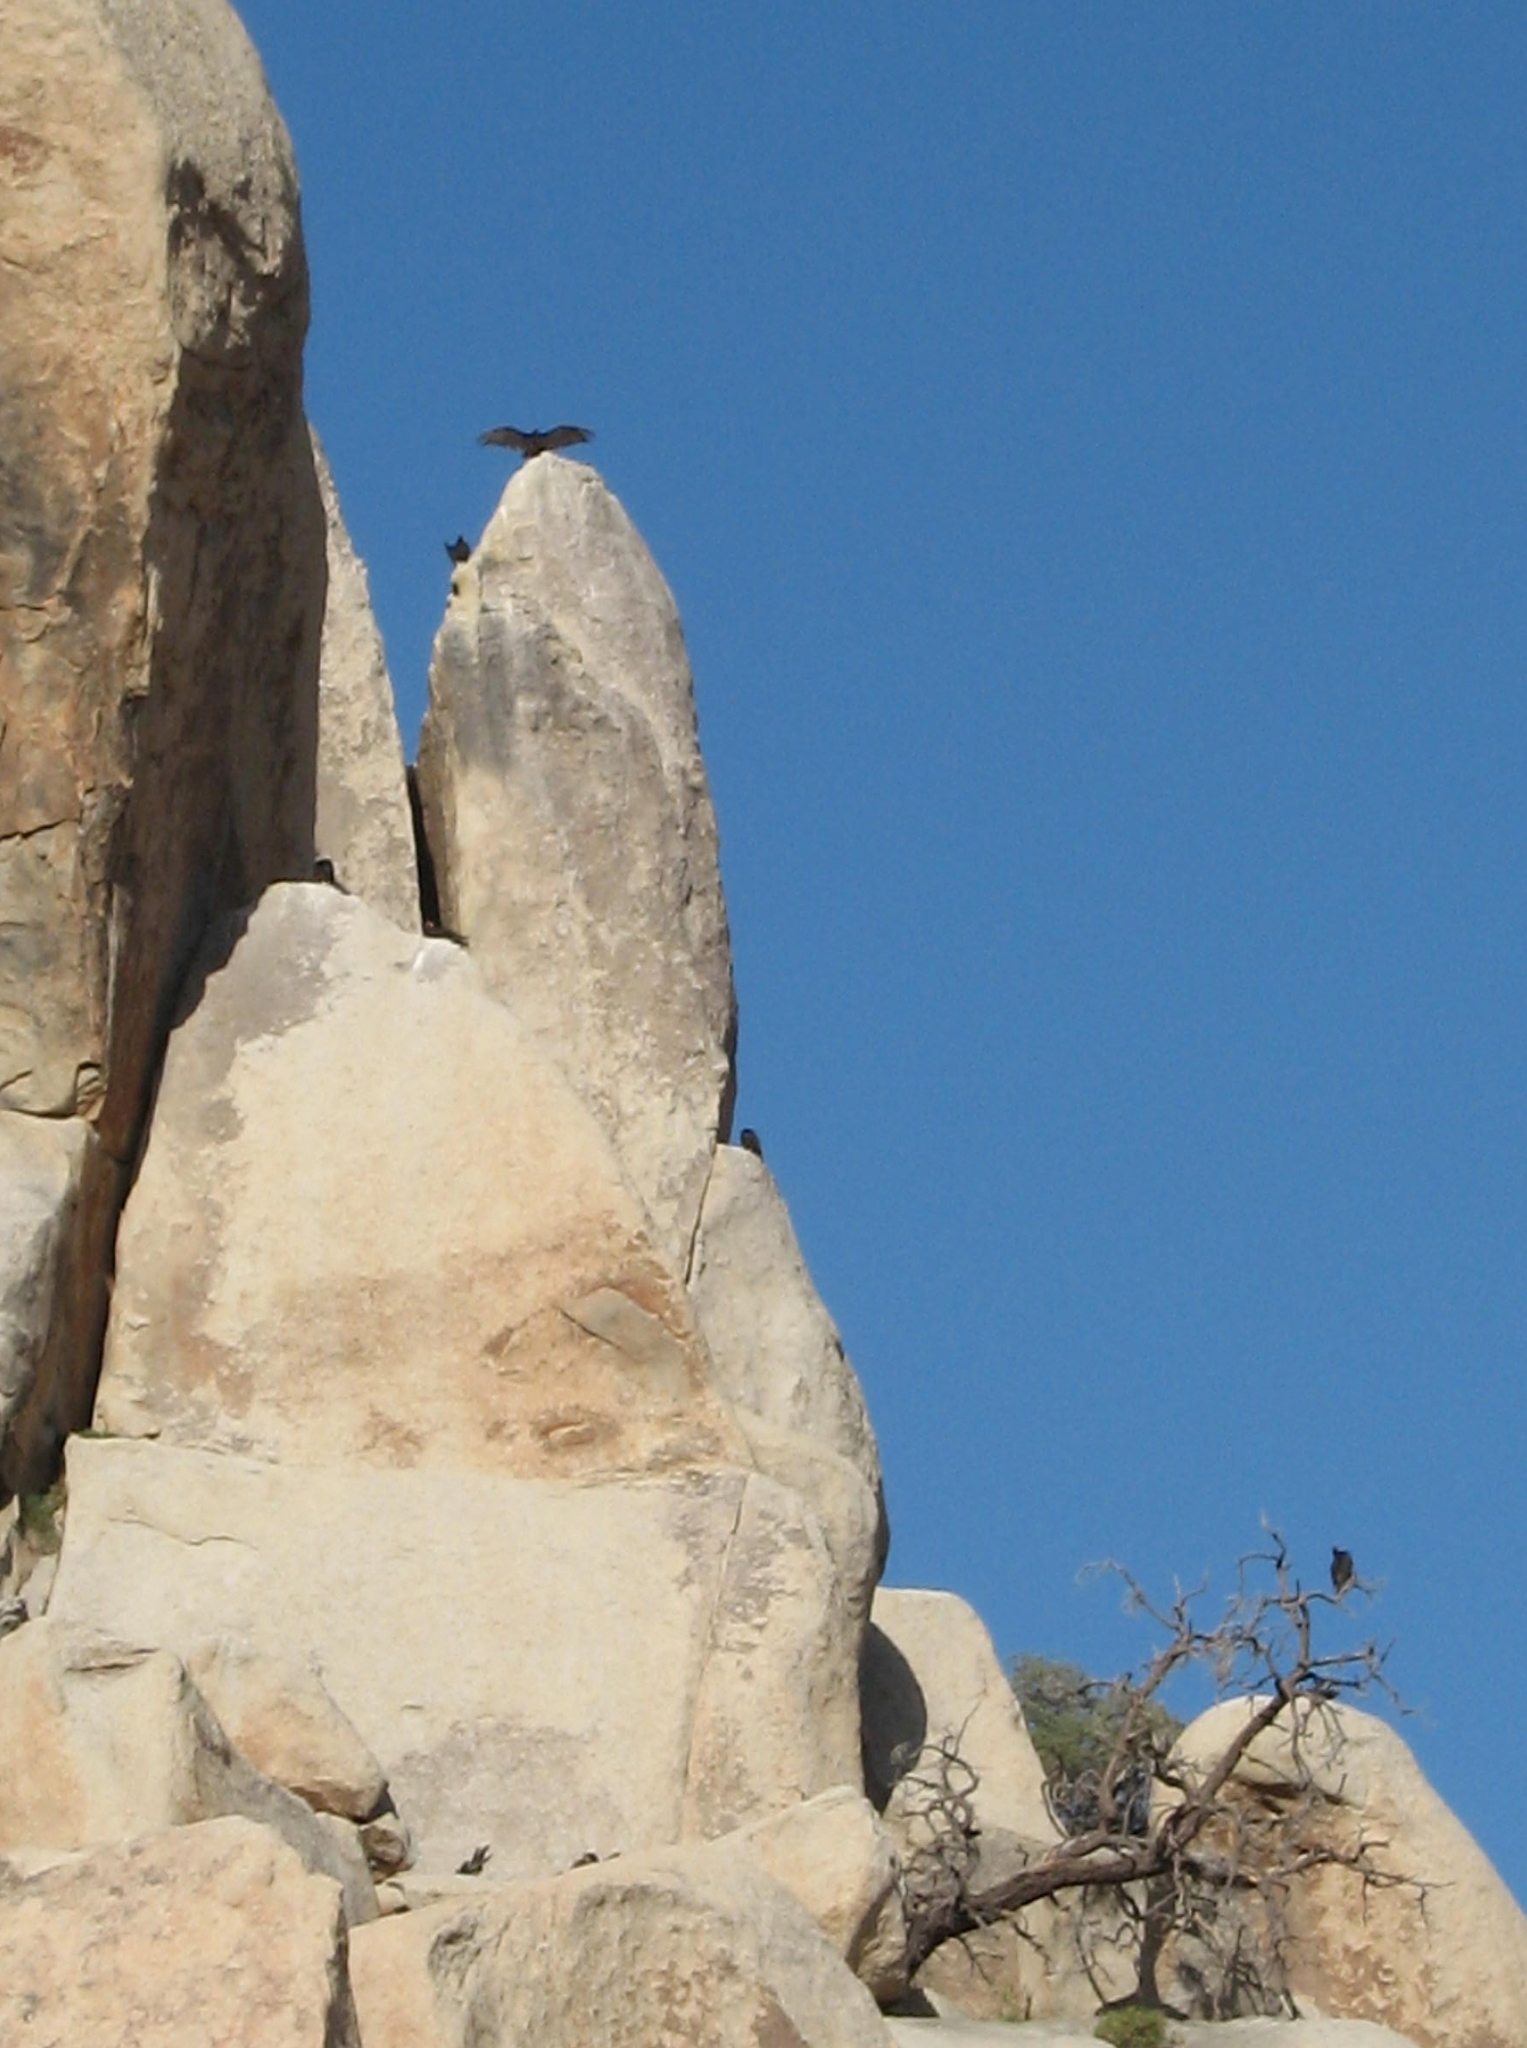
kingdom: Animalia
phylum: Chordata
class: Aves
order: Accipitriformes
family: Cathartidae
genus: Cathartes
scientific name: Cathartes aura
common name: Turkey vulture
